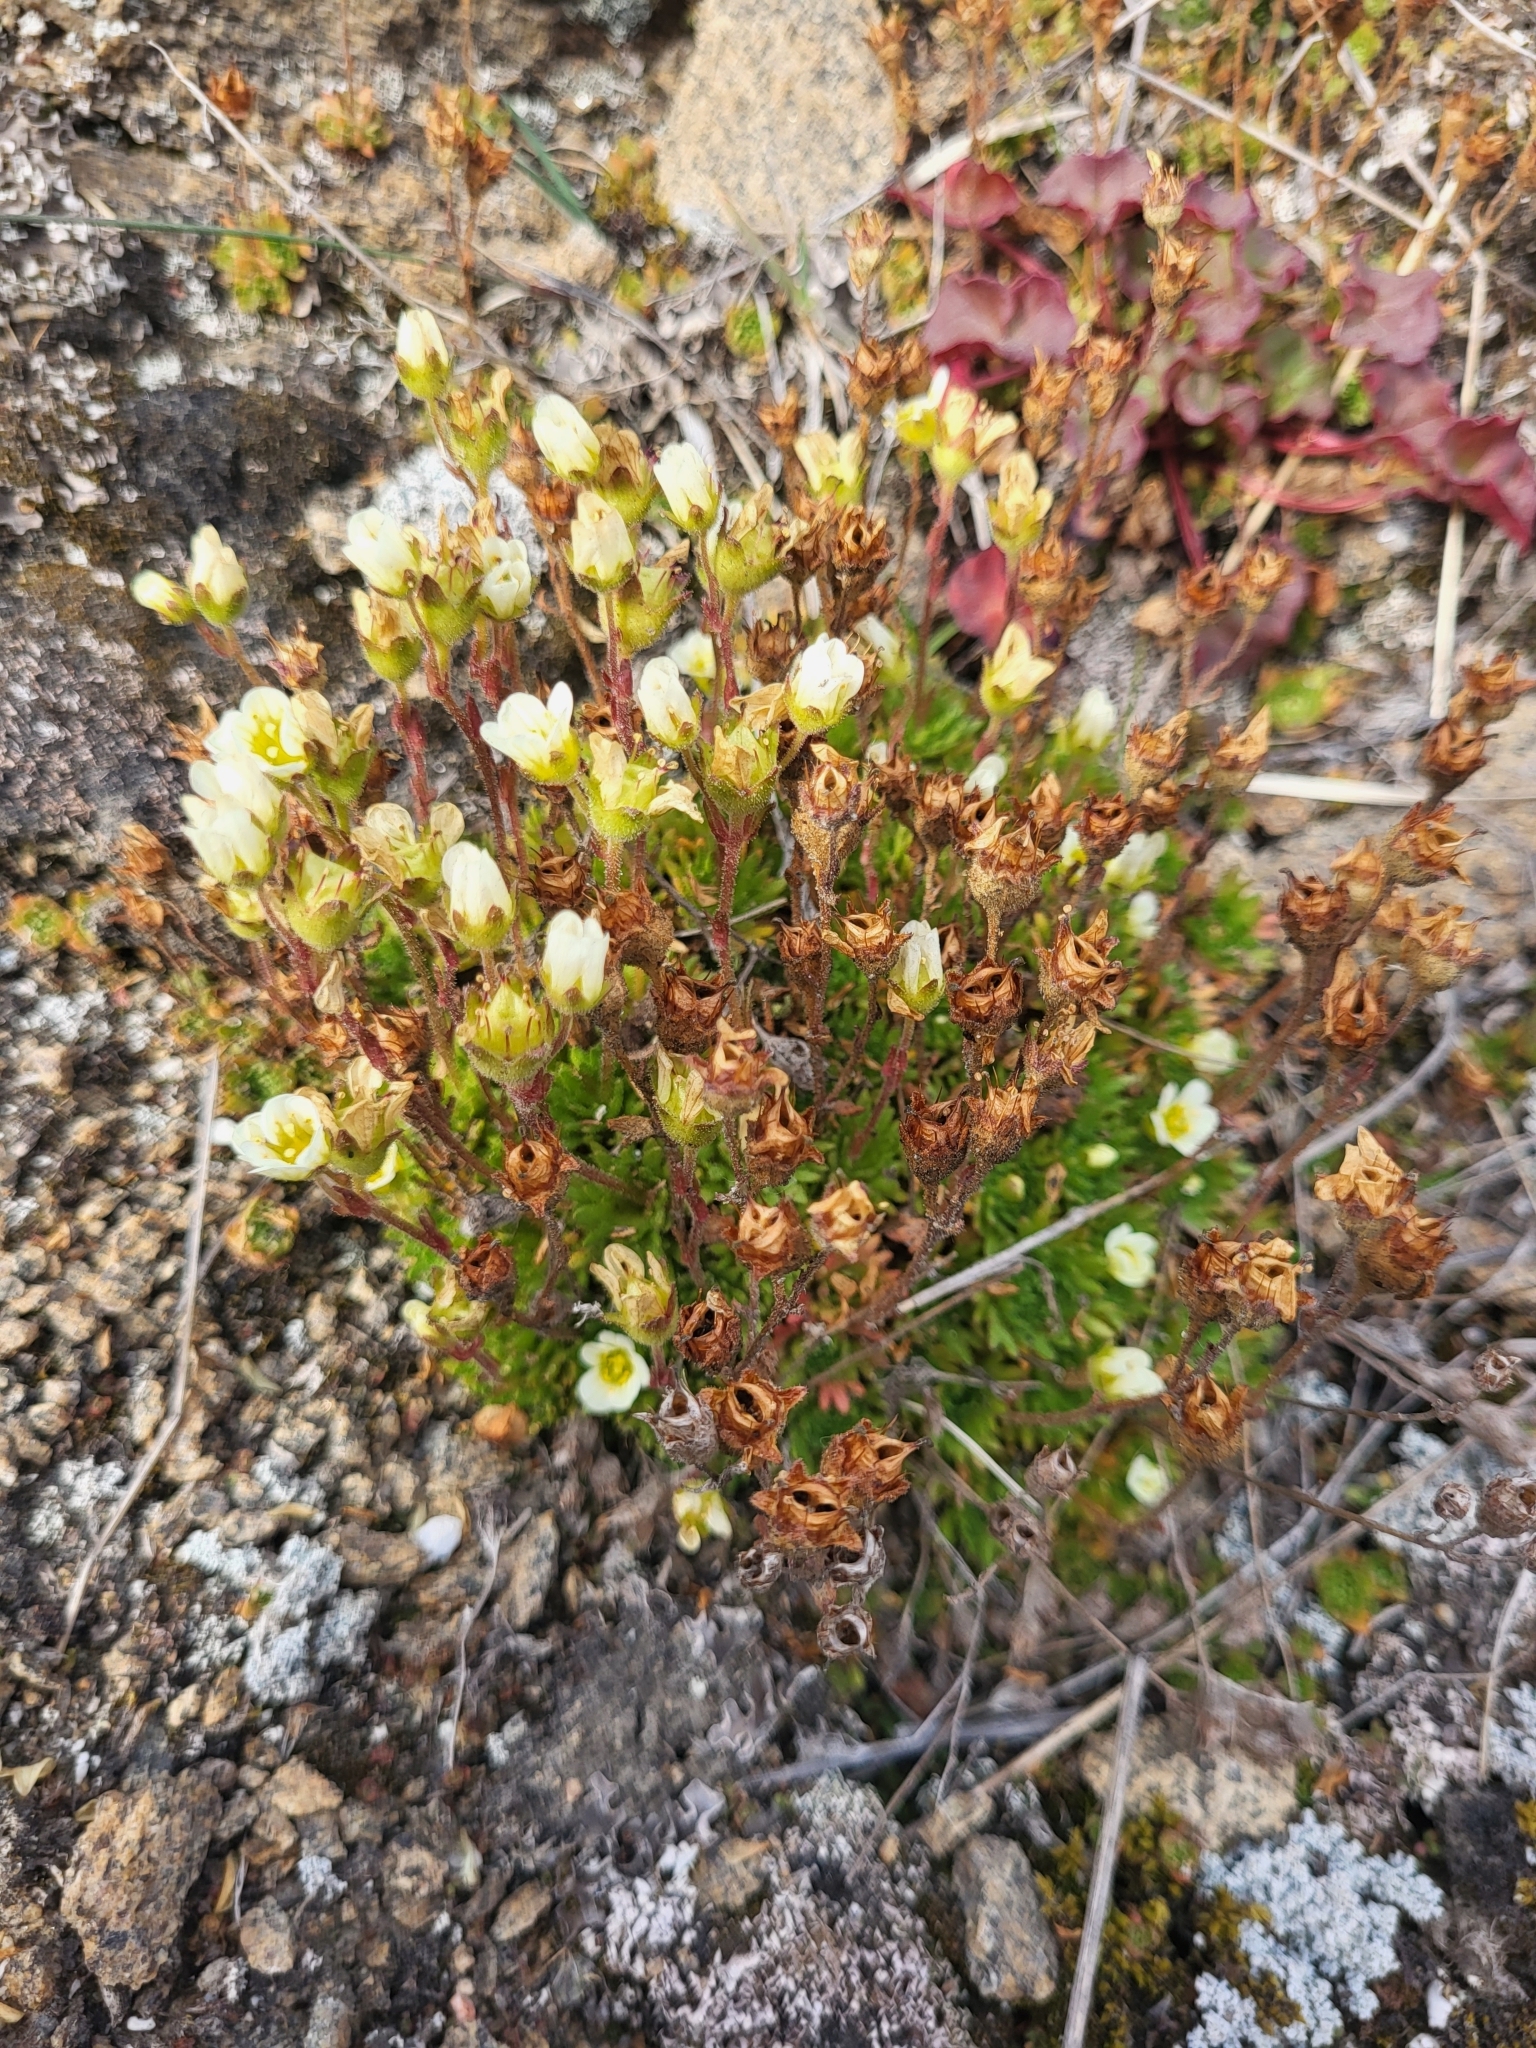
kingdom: Plantae
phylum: Tracheophyta
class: Magnoliopsida
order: Saxifragales
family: Saxifragaceae
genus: Saxifraga
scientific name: Saxifraga cespitosa
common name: Tufted saxifrage
